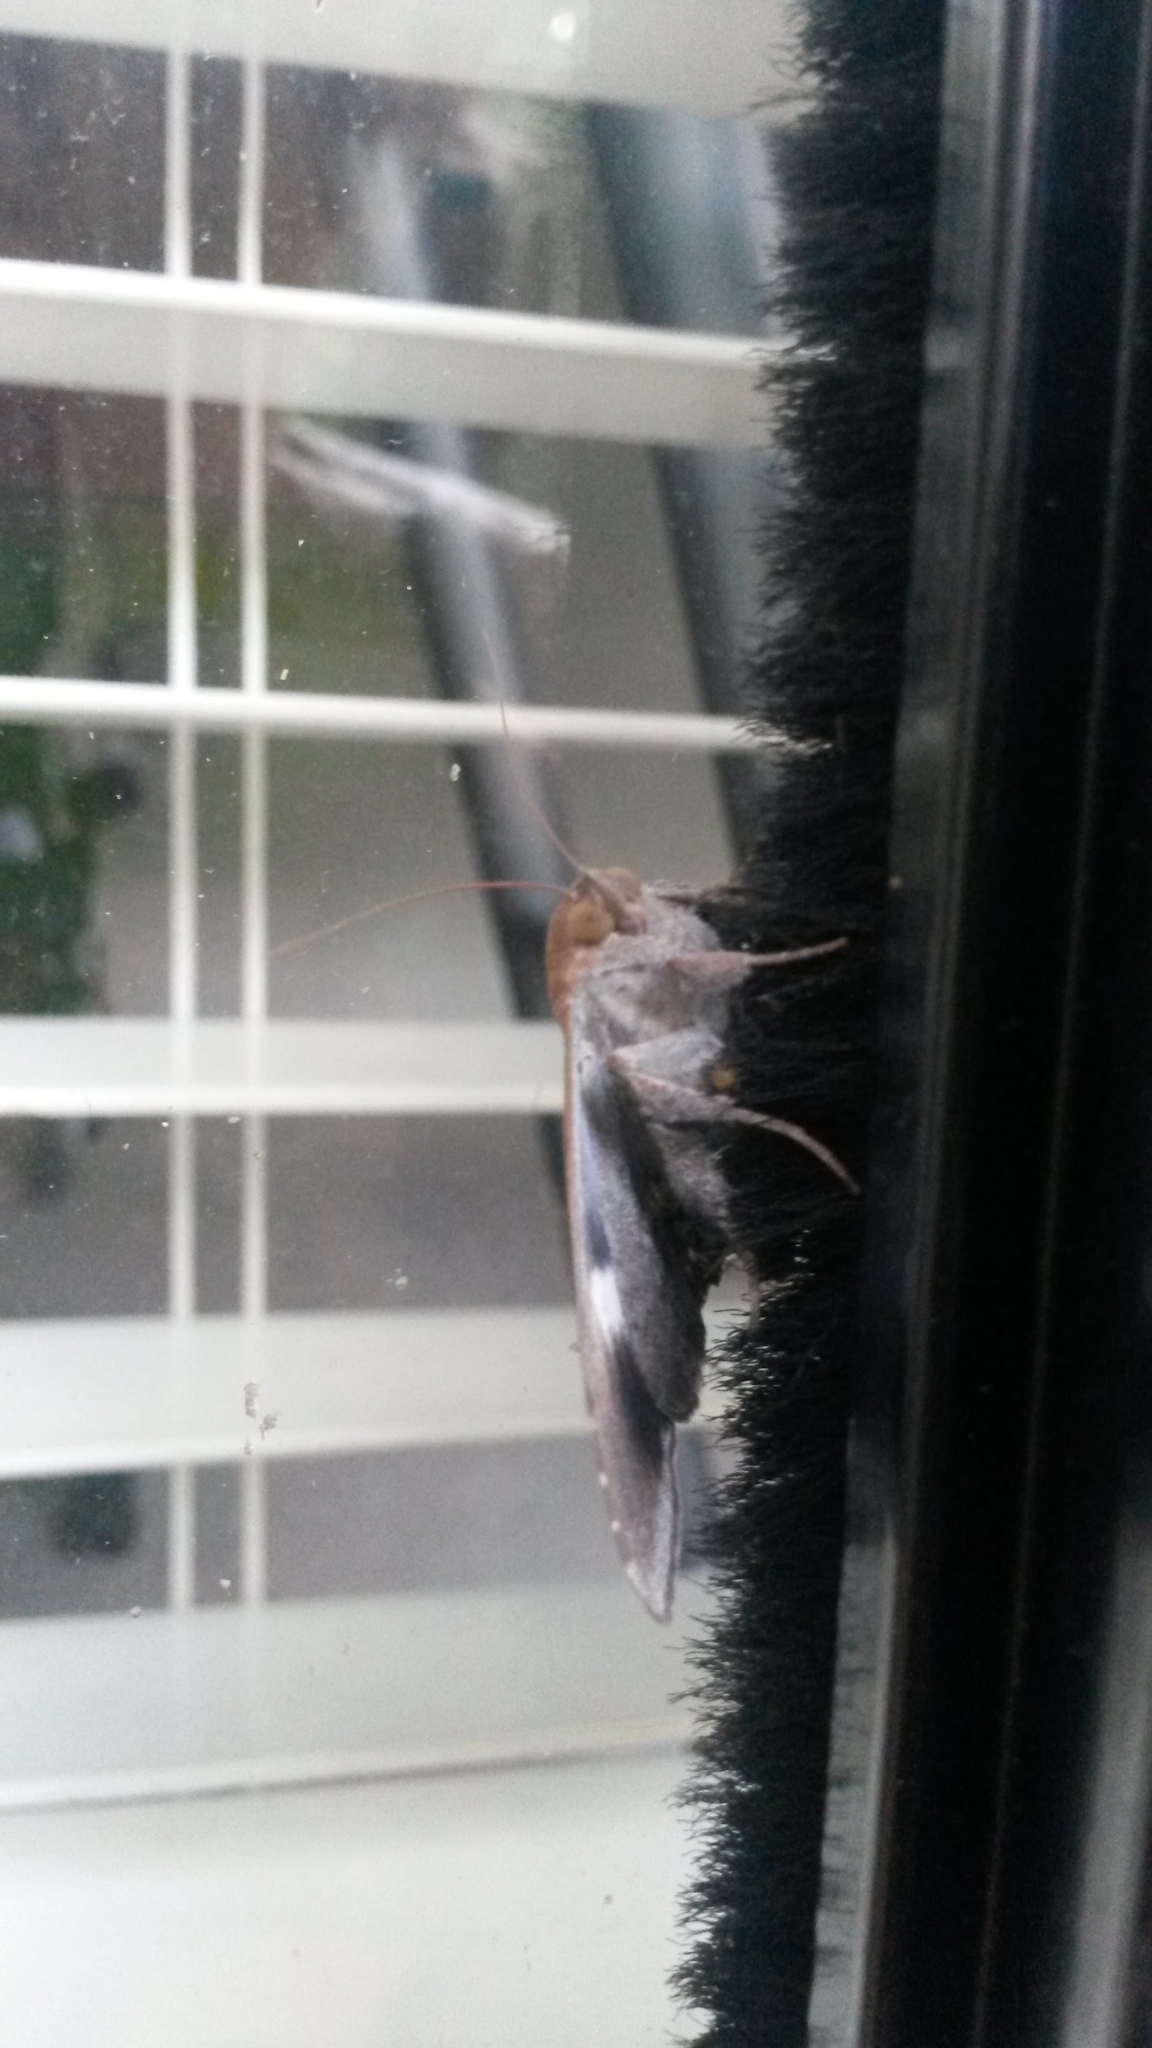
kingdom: Animalia
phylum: Arthropoda
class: Insecta
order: Lepidoptera
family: Erebidae
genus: Achaea
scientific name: Achaea janata
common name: Croton caterpillar
